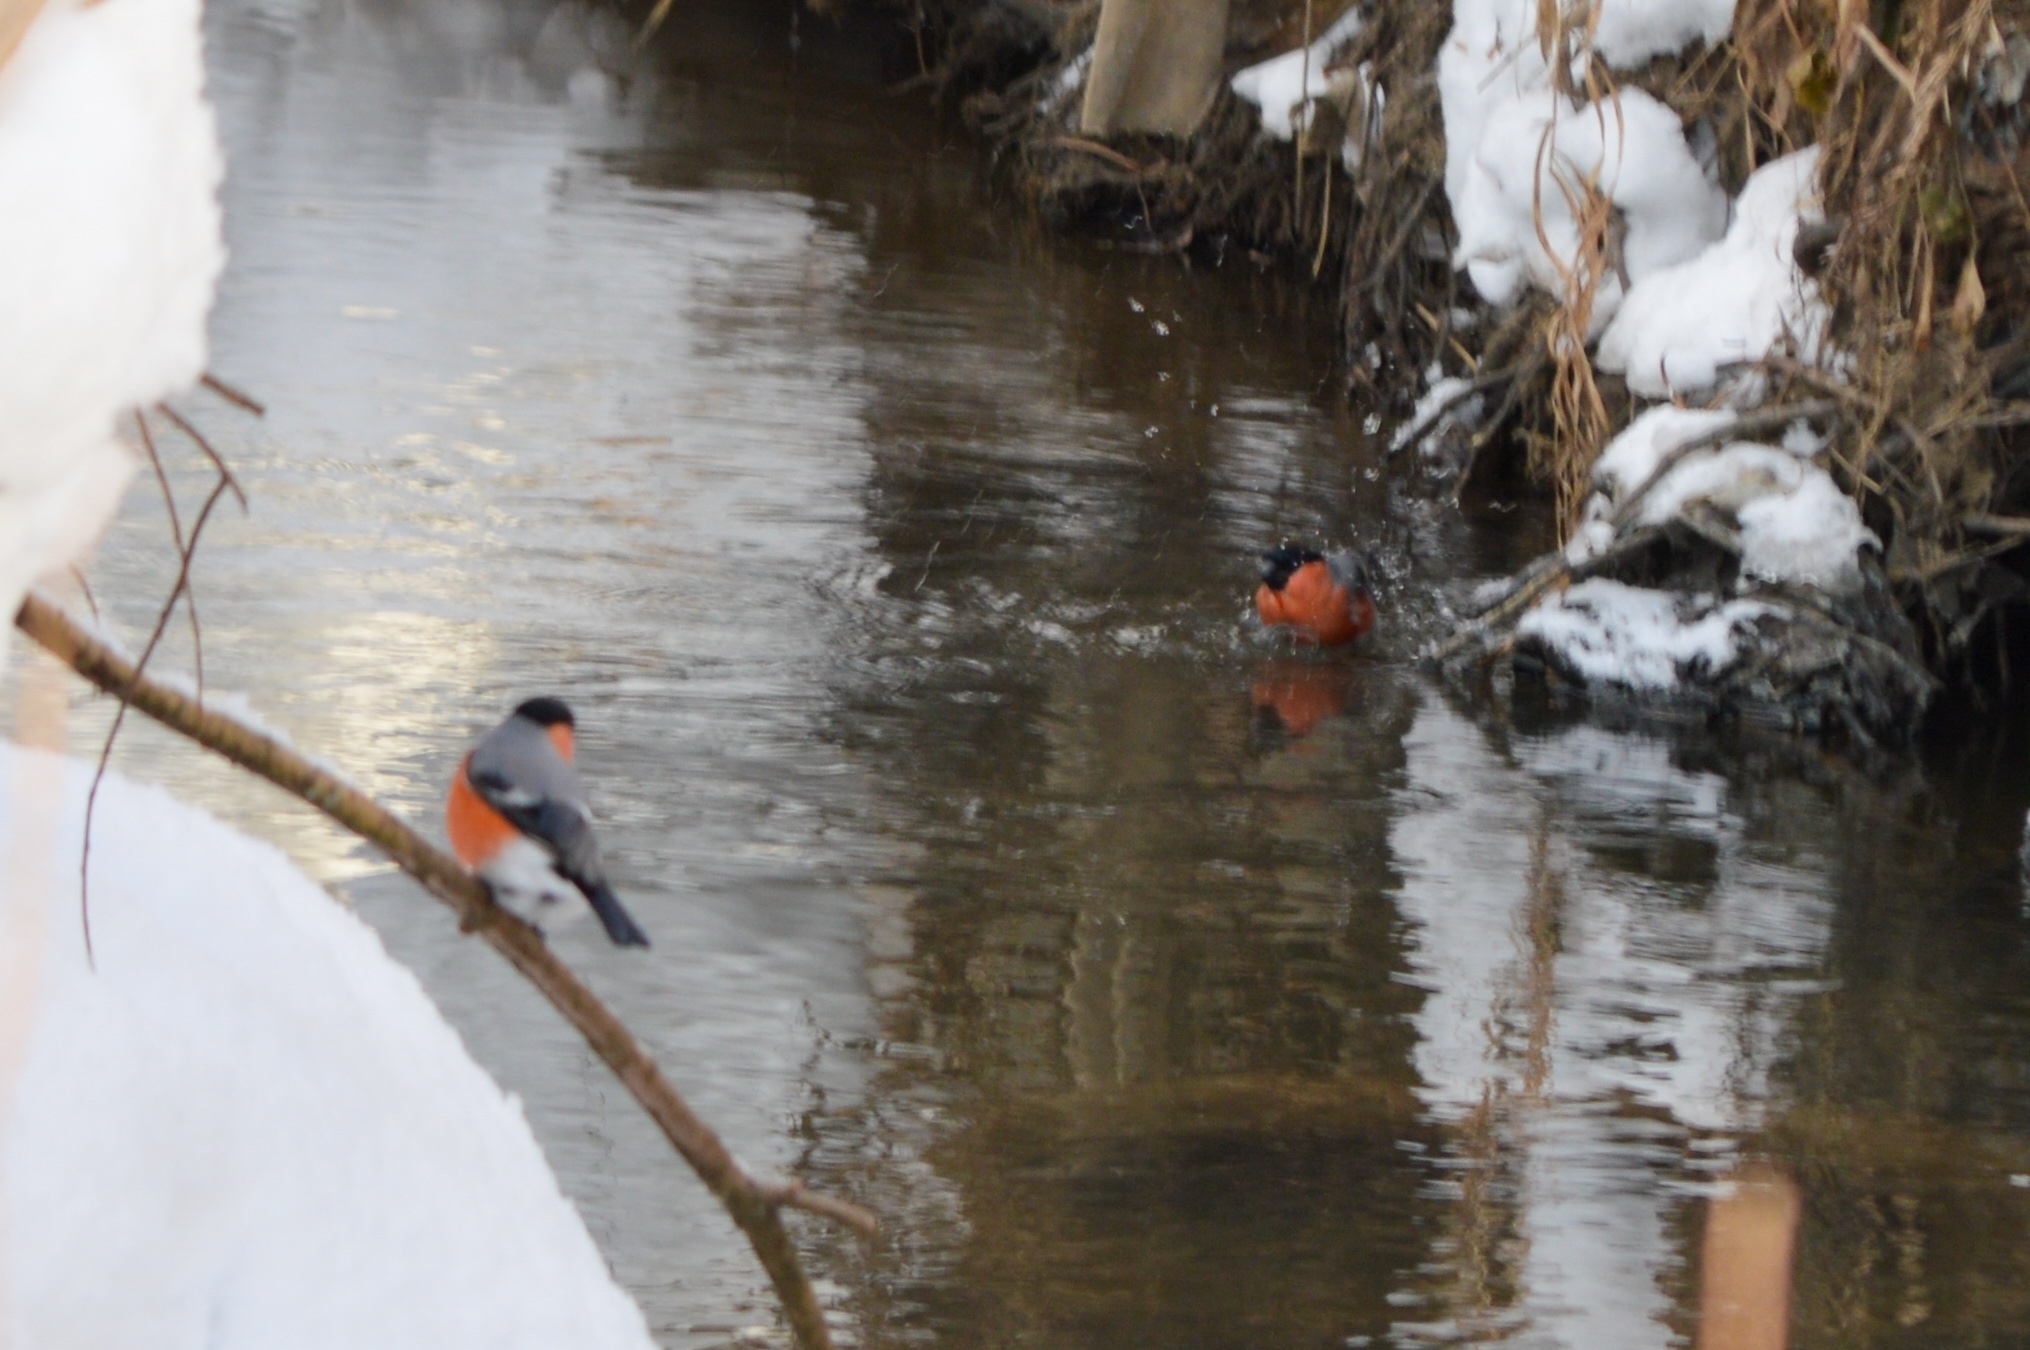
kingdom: Animalia
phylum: Chordata
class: Aves
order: Passeriformes
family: Fringillidae
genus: Pyrrhula
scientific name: Pyrrhula pyrrhula
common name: Eurasian bullfinch
